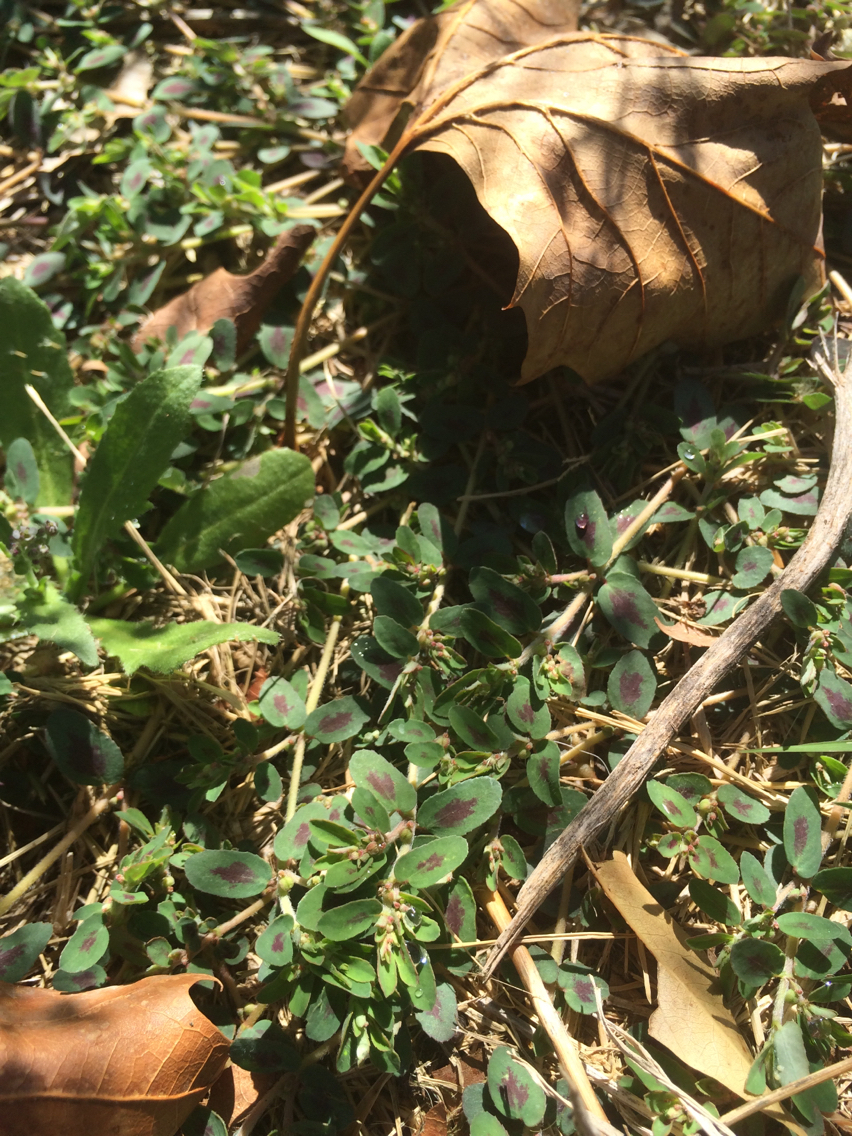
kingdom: Plantae
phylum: Tracheophyta
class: Magnoliopsida
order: Malpighiales
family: Euphorbiaceae
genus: Euphorbia
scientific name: Euphorbia maculata
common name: Spotted spurge
